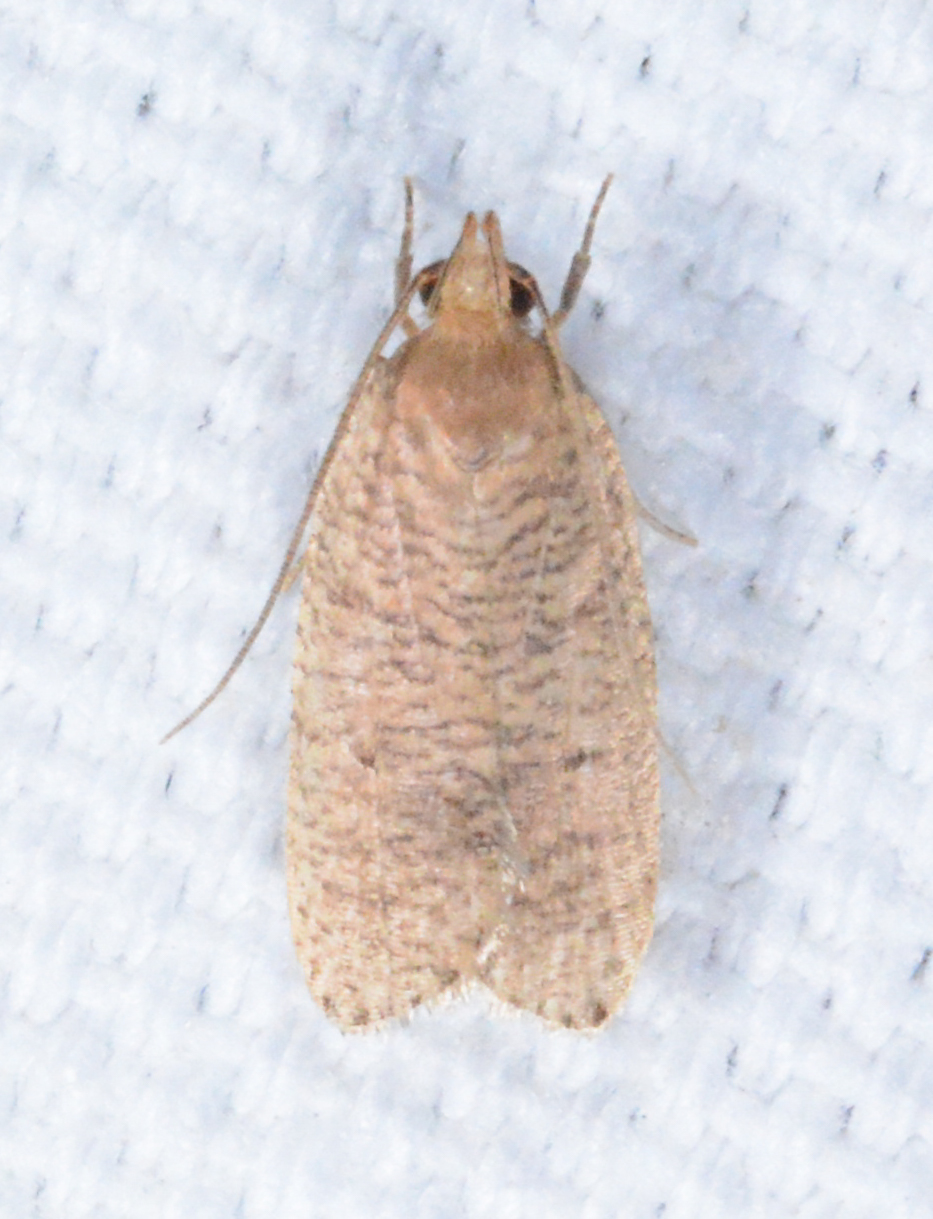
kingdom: Animalia
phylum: Arthropoda
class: Insecta
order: Lepidoptera
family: Depressariidae
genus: Psilocorsis
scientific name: Psilocorsis reflexella
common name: Dotted leaftier moth
